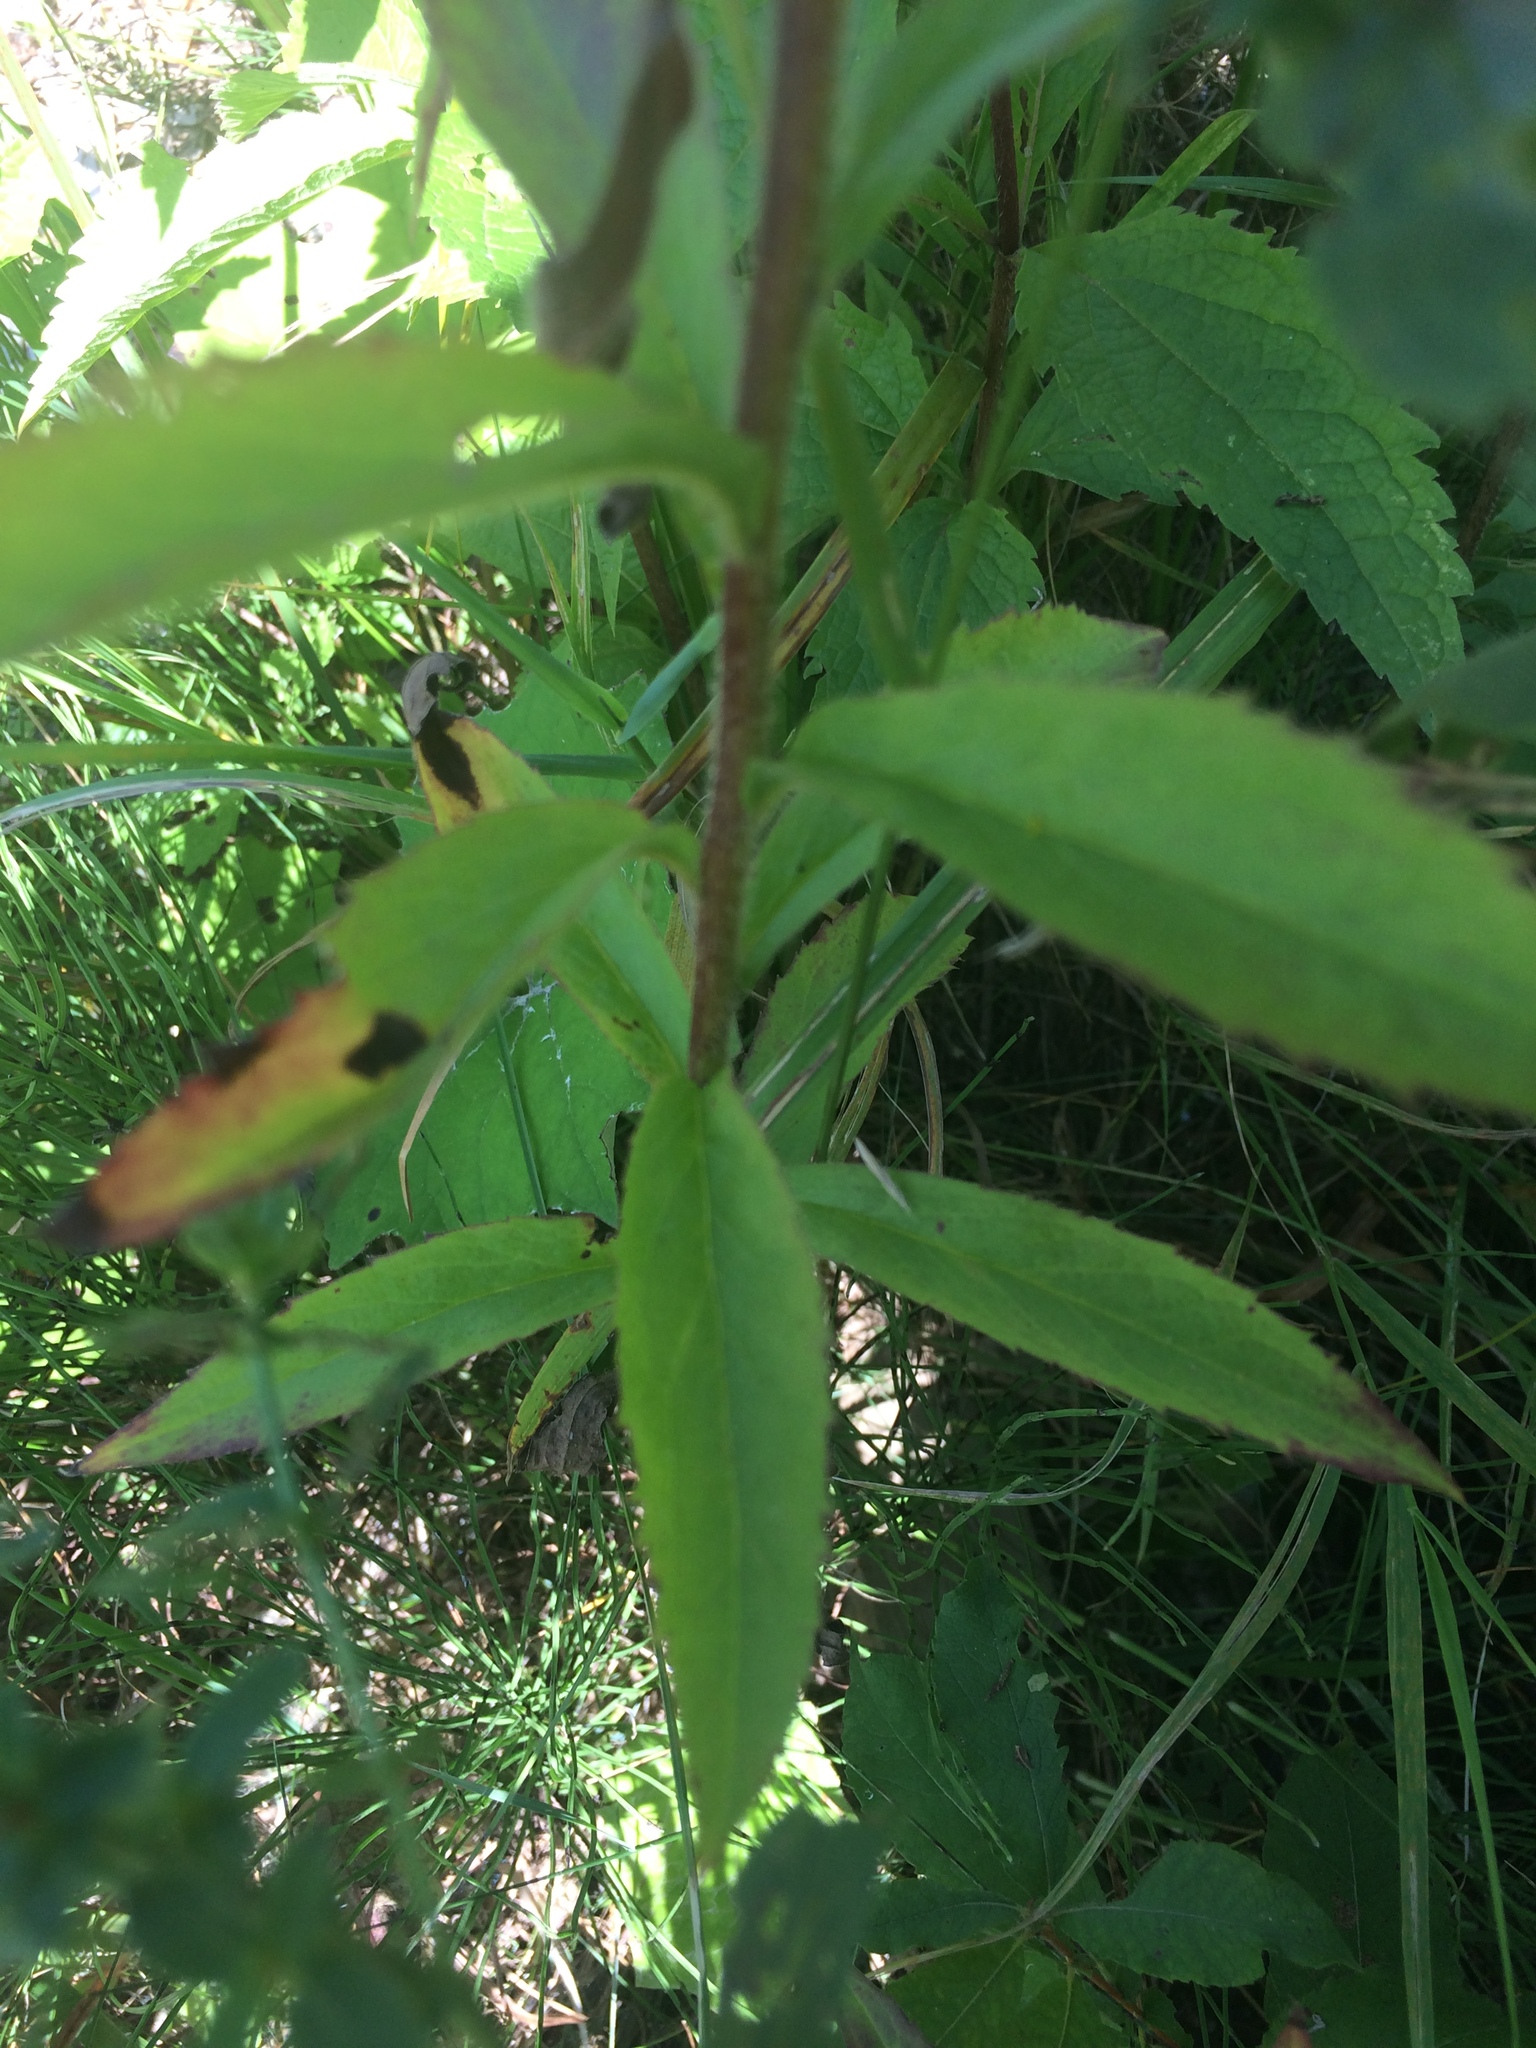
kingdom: Plantae
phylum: Tracheophyta
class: Magnoliopsida
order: Asterales
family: Asteraceae
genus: Solidago
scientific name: Solidago rugosa
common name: Rough-stemmed goldenrod
